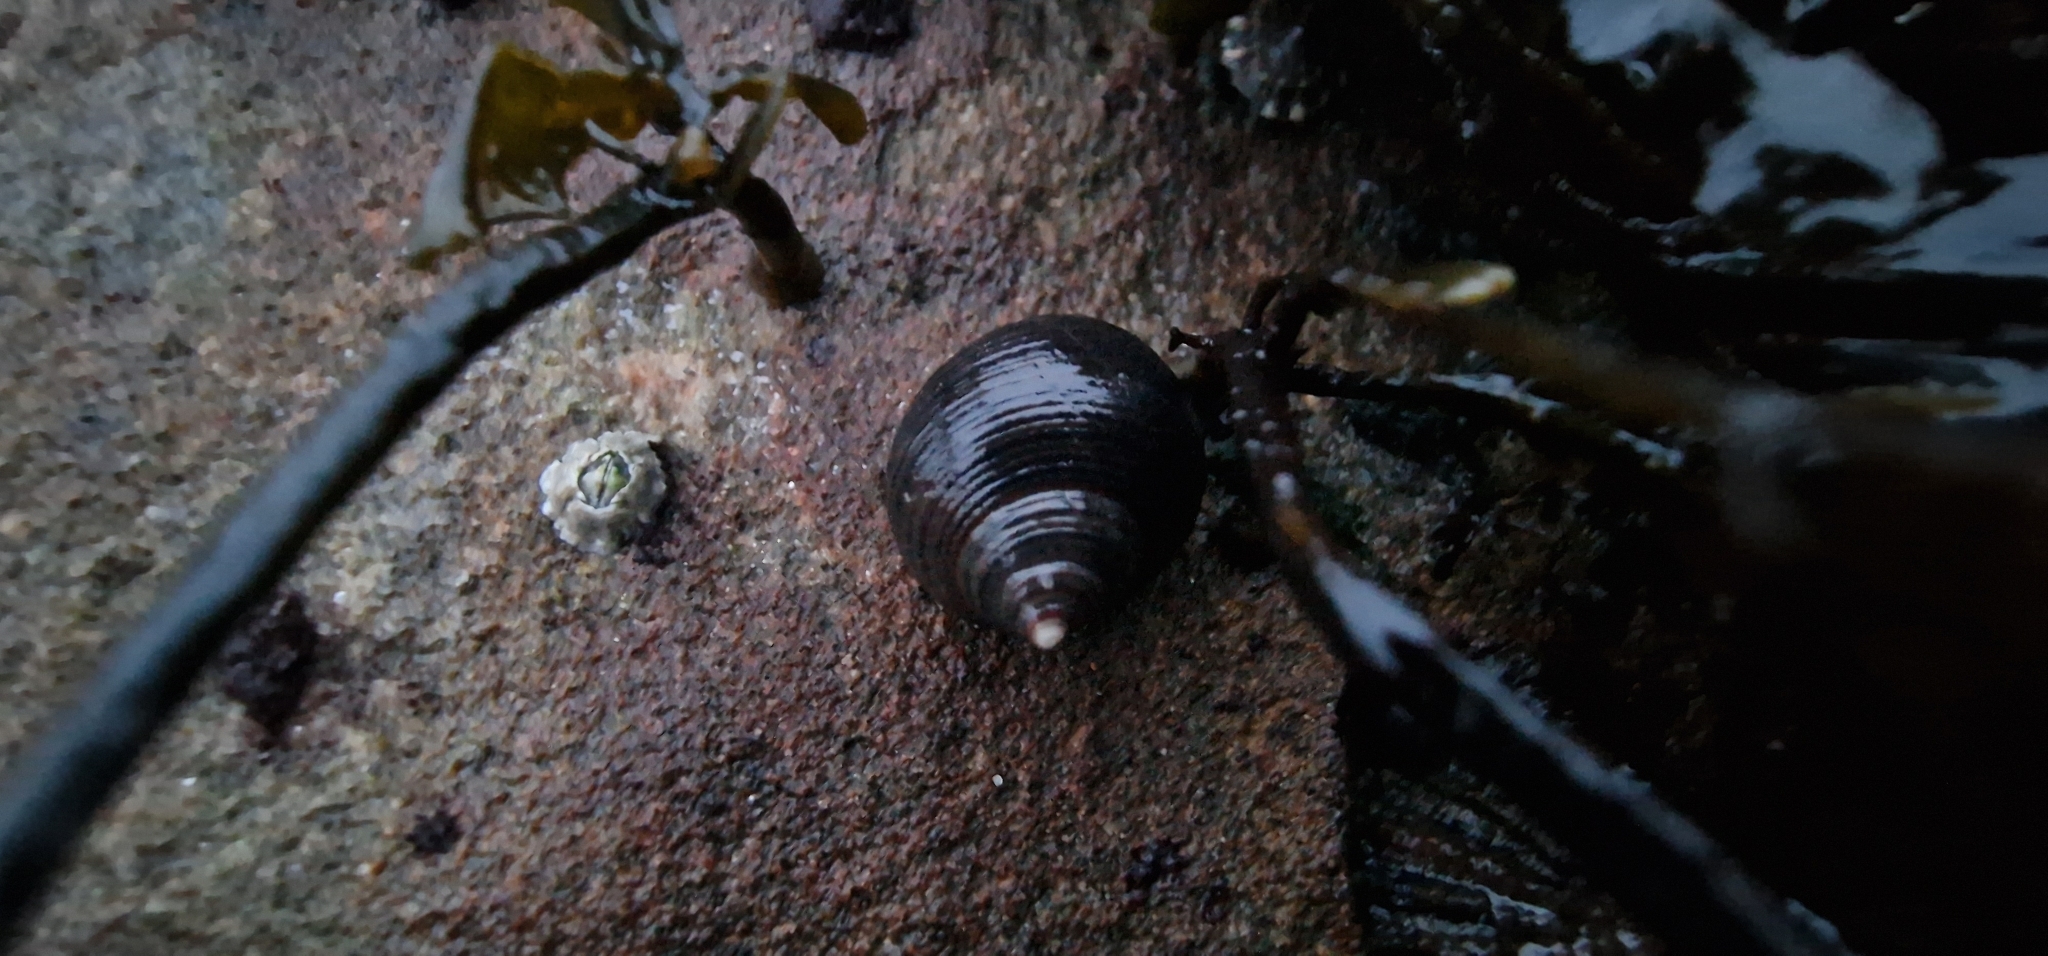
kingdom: Animalia
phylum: Mollusca
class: Gastropoda
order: Littorinimorpha
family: Littorinidae
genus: Littorina
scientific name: Littorina littorea
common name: Common periwinkle
